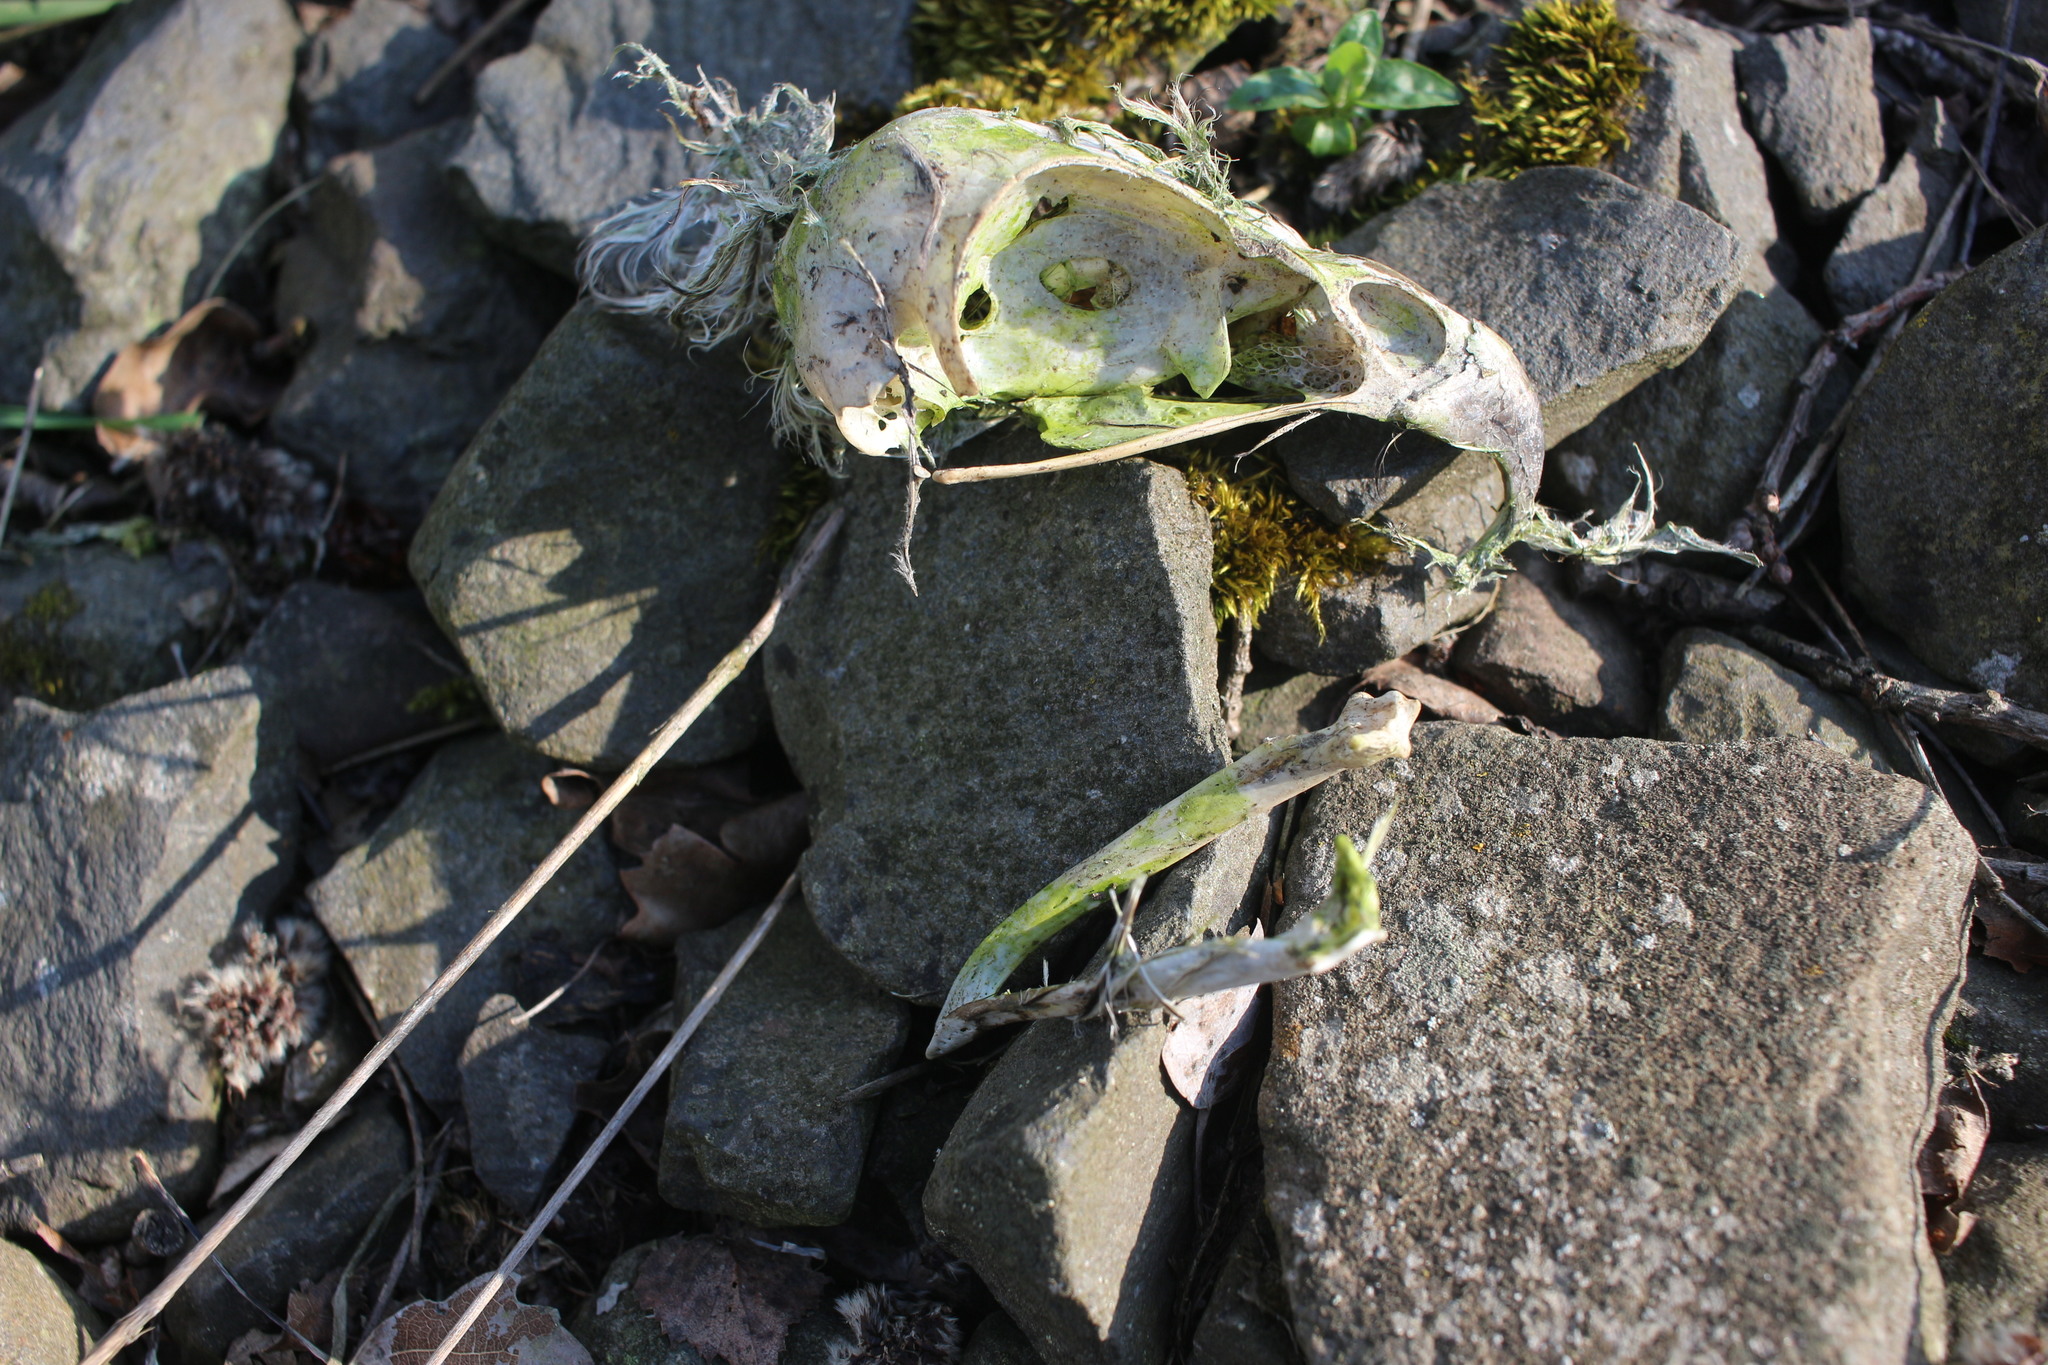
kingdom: Animalia
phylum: Chordata
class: Aves
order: Accipitriformes
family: Accipitridae
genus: Buteo
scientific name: Buteo buteo
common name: Common buzzard
